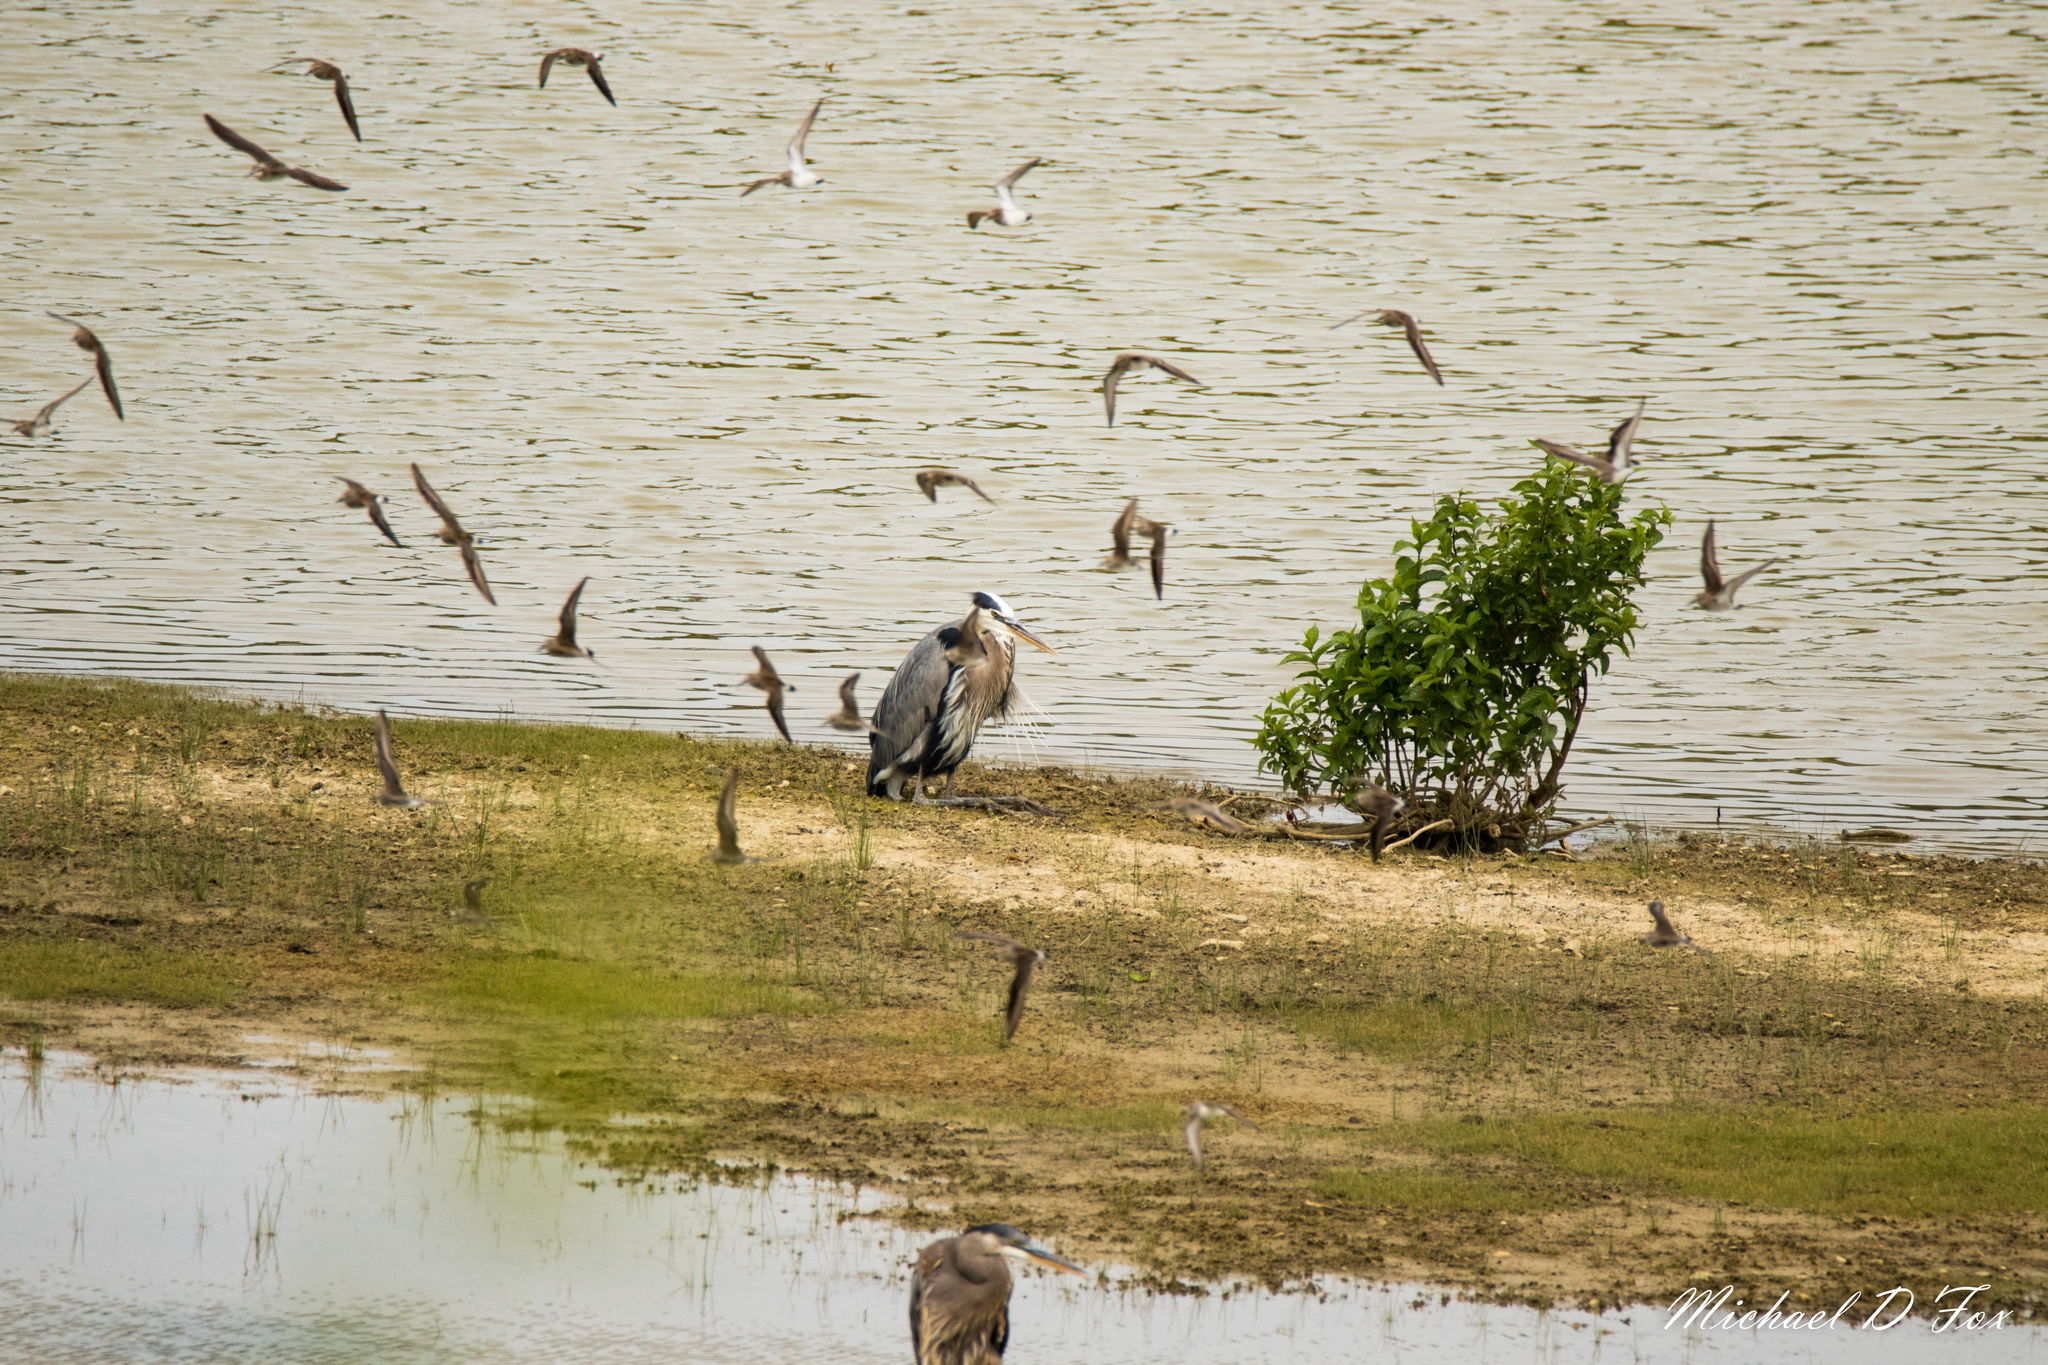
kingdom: Animalia
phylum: Chordata
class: Aves
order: Pelecaniformes
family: Ardeidae
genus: Ardea
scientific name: Ardea herodias
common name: Great blue heron
